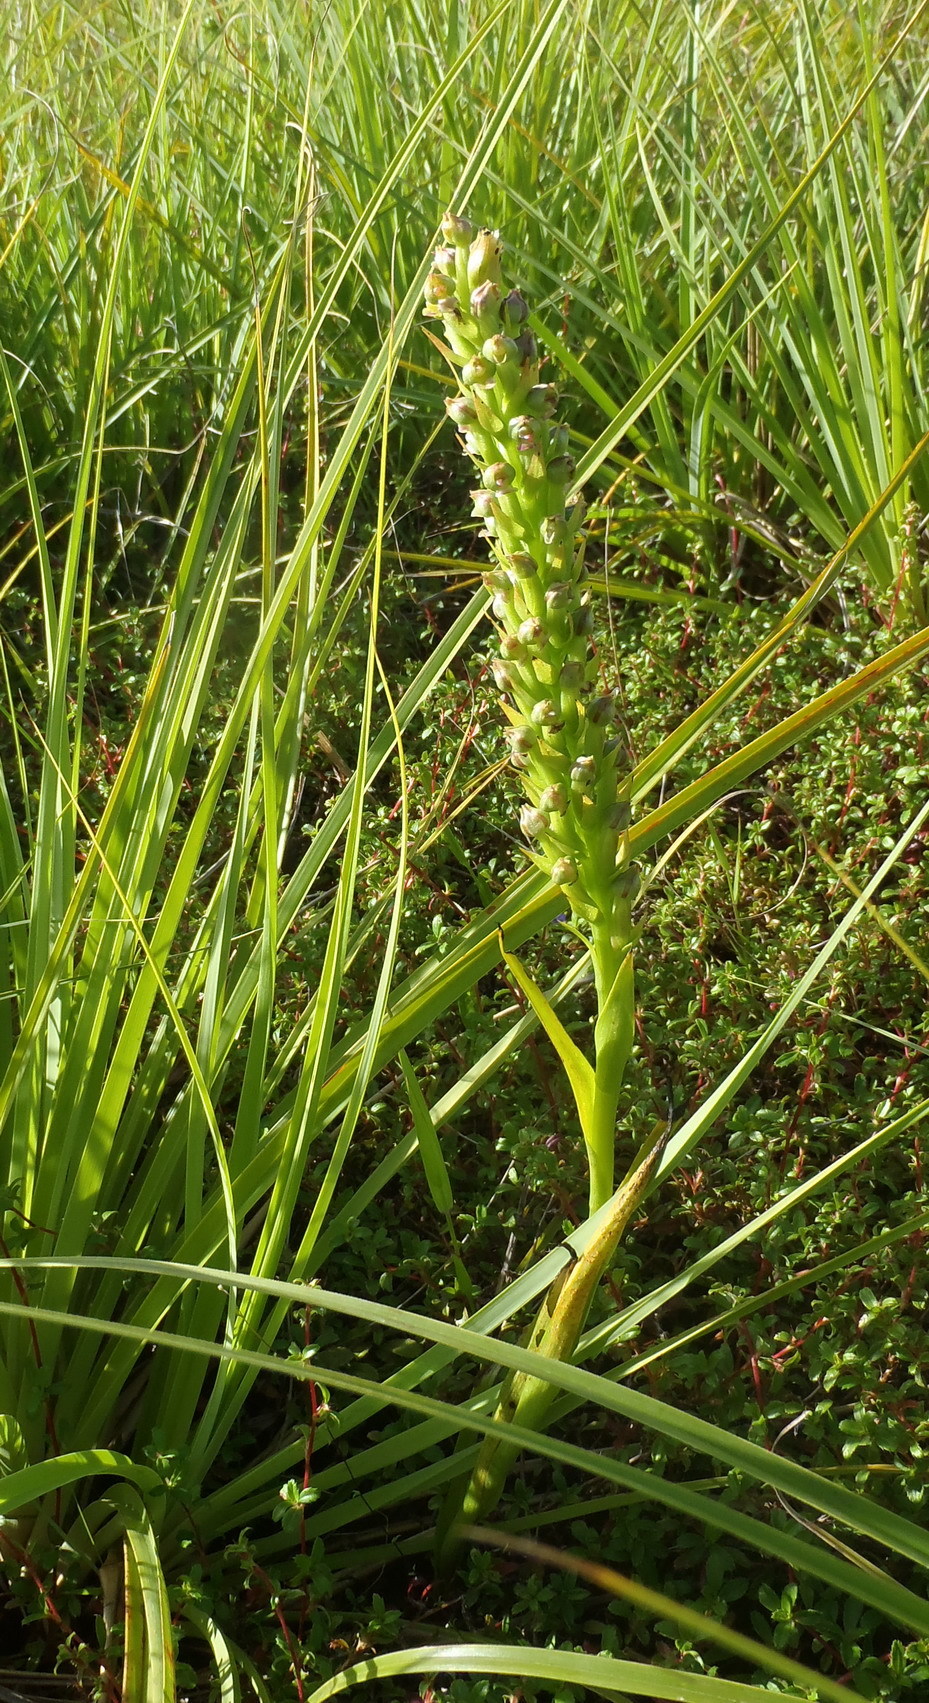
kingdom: Plantae
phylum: Tracheophyta
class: Liliopsida
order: Asparagales
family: Orchidaceae
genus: Evotella
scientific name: Evotella carnosa
